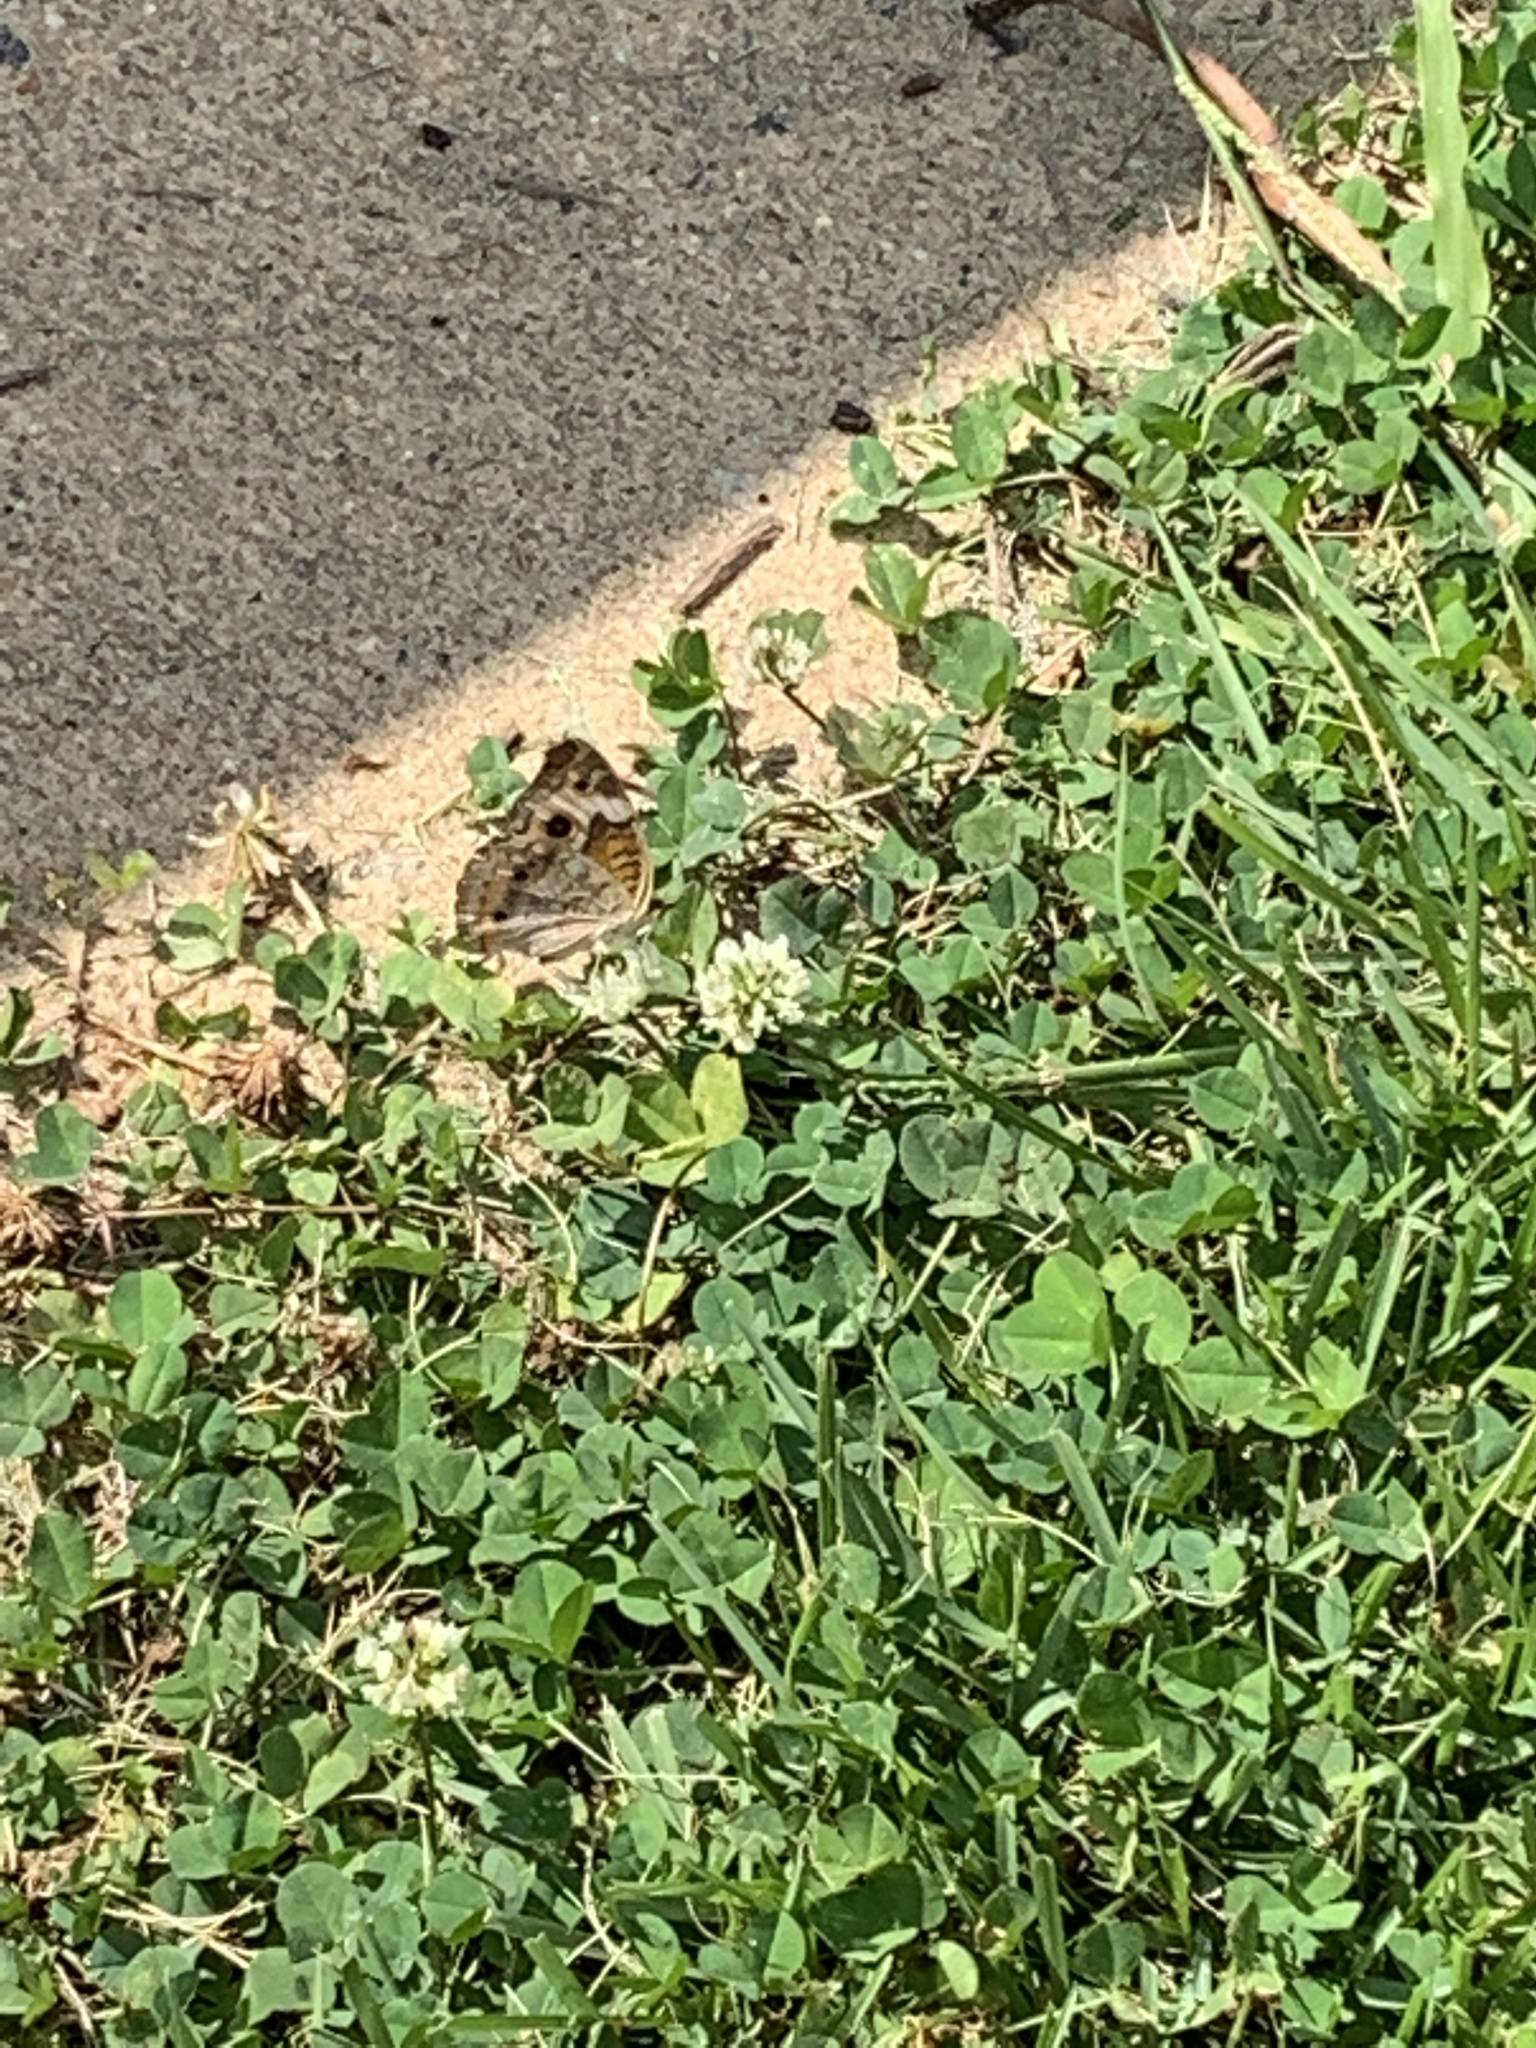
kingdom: Animalia
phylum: Arthropoda
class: Insecta
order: Lepidoptera
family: Nymphalidae
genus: Junonia
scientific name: Junonia coenia
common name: Common buckeye
